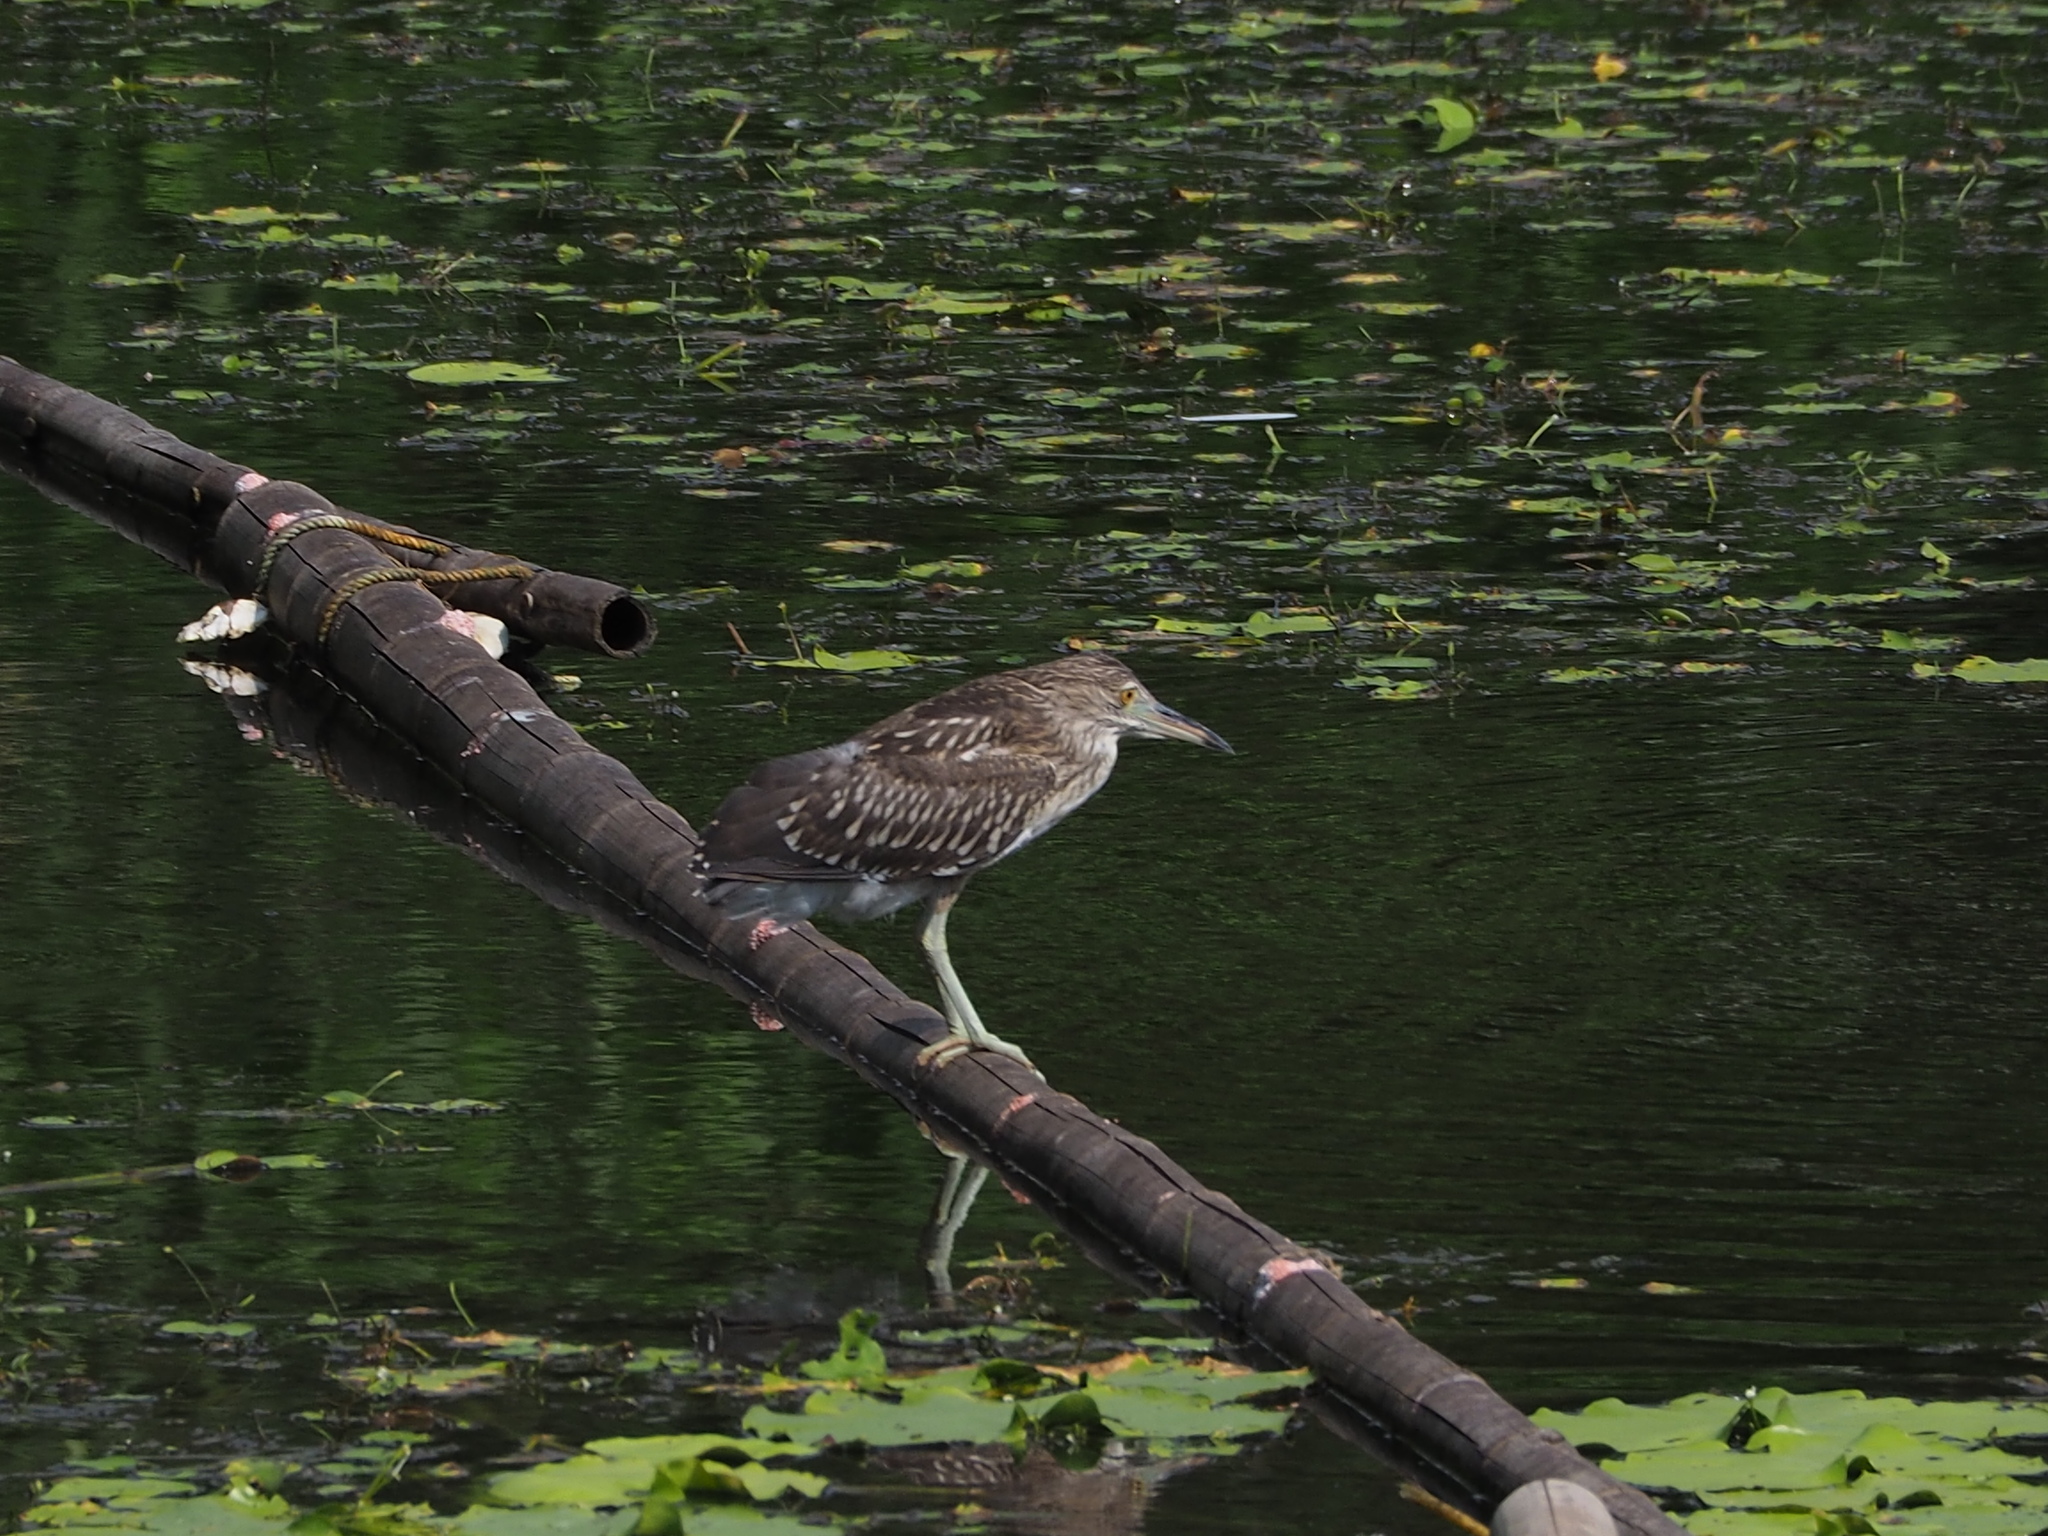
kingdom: Animalia
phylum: Chordata
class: Aves
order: Pelecaniformes
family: Ardeidae
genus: Nycticorax
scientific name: Nycticorax nycticorax
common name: Black-crowned night heron
